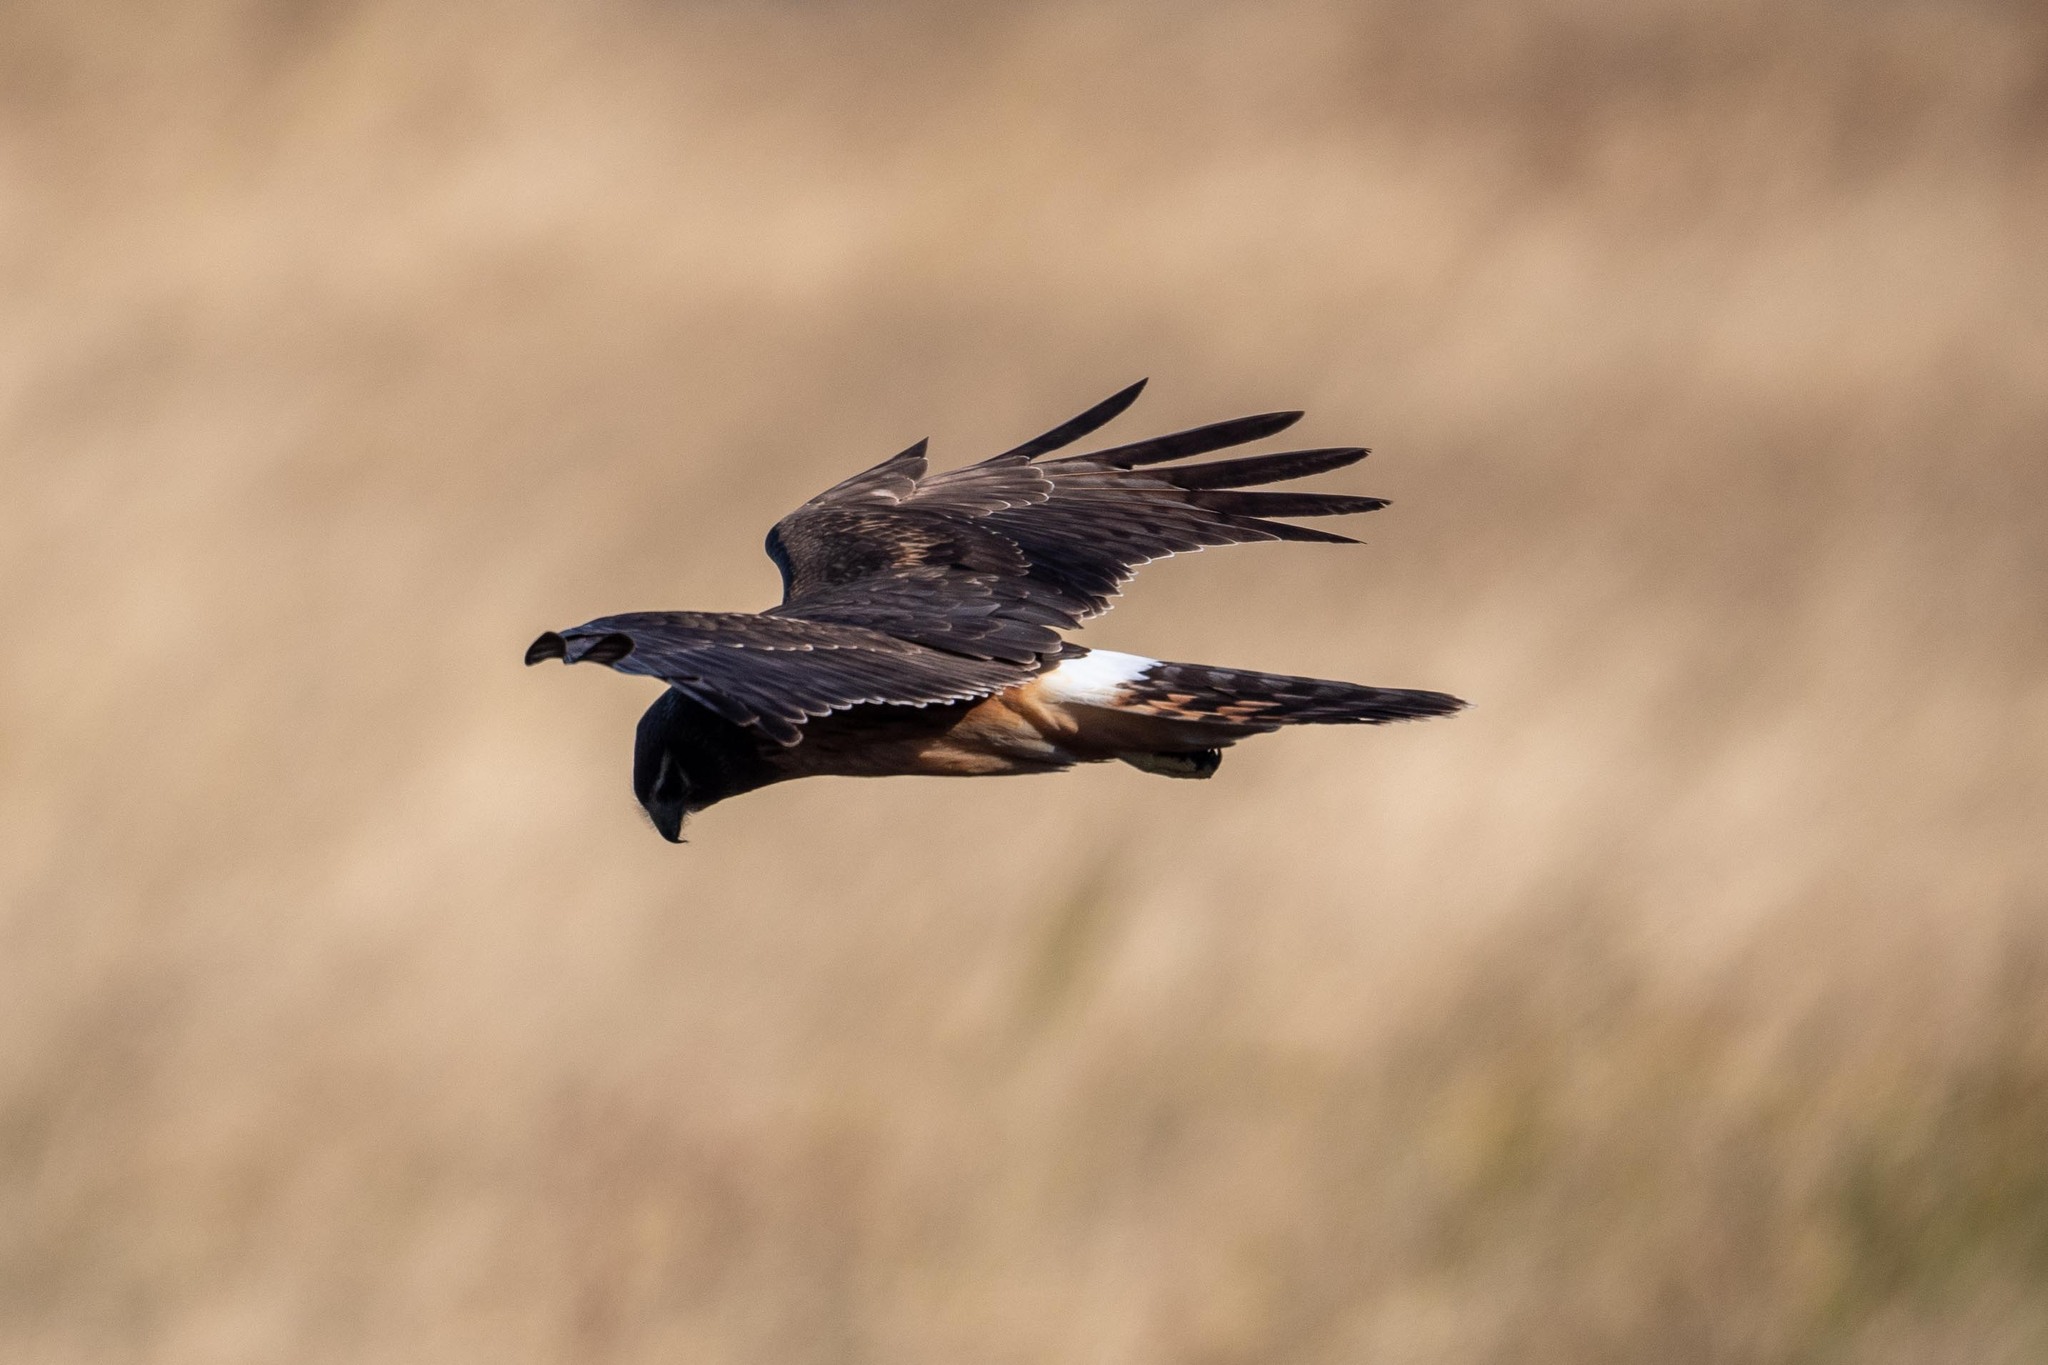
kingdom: Animalia
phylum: Chordata
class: Aves
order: Accipitriformes
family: Accipitridae
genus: Circus
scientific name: Circus cyaneus
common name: Hen harrier
